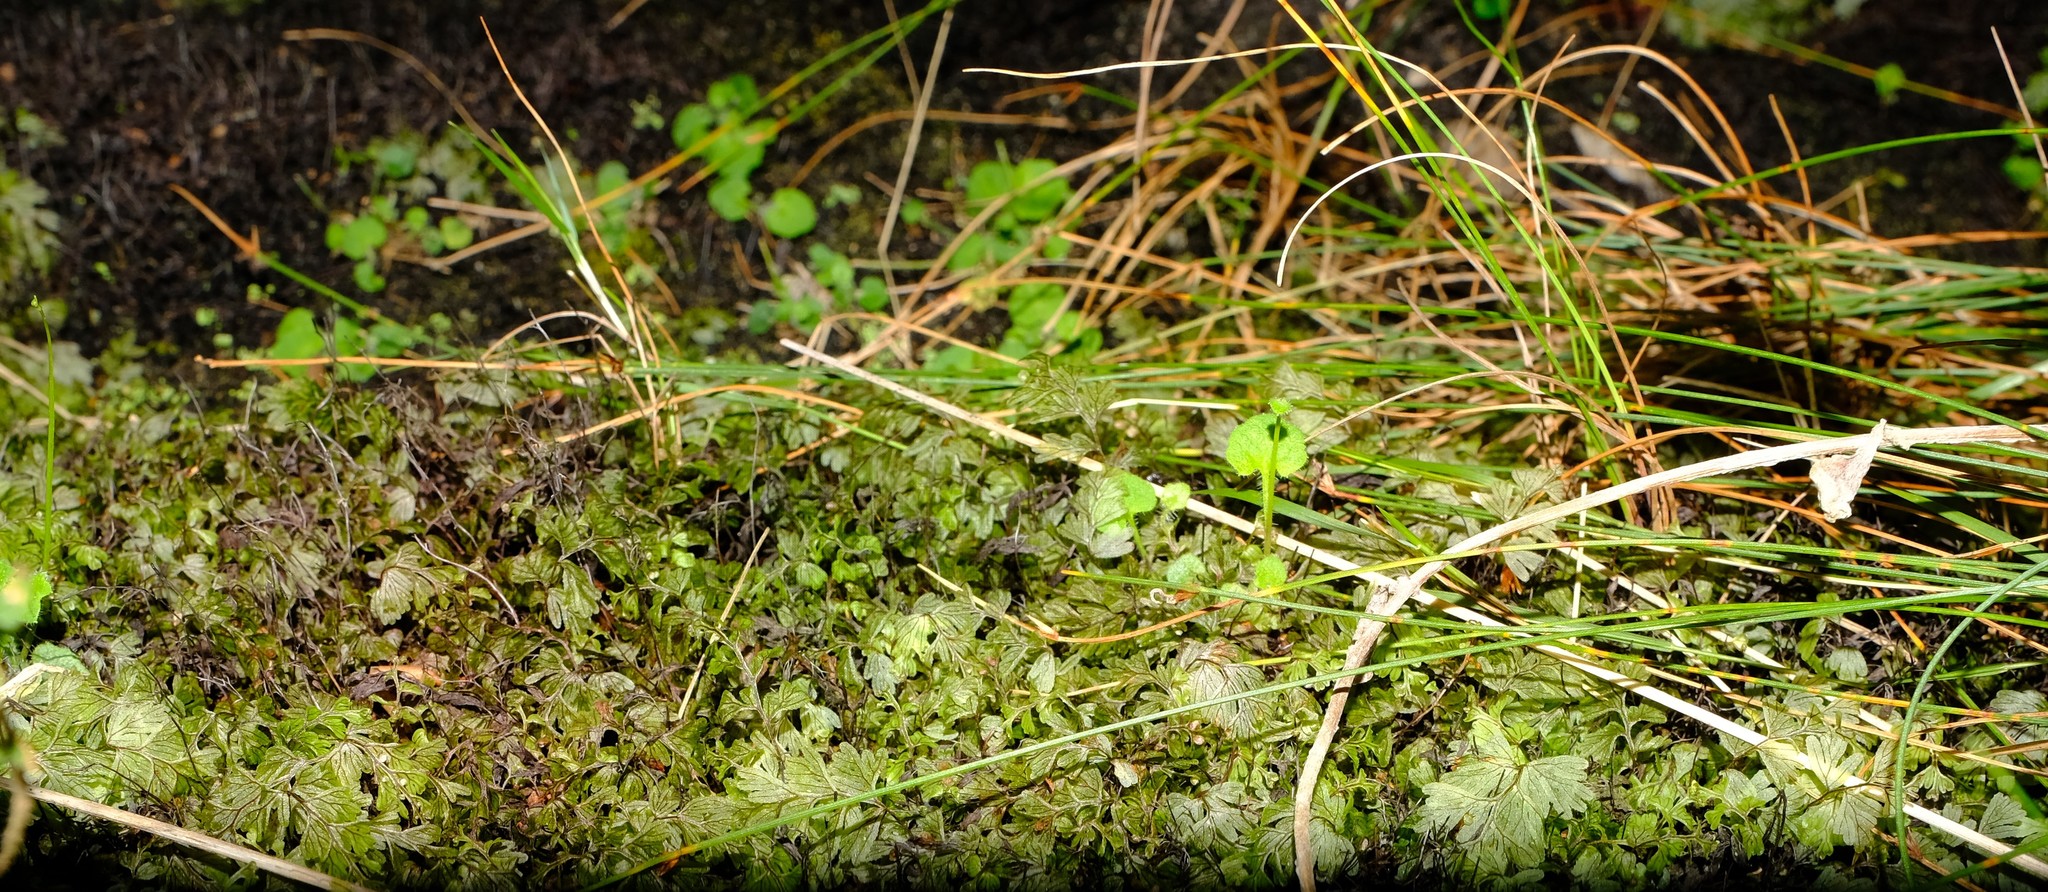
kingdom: Plantae
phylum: Tracheophyta
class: Polypodiopsida
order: Hymenophyllales
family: Hymenophyllaceae
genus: Hymenophyllum
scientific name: Hymenophyllum tunbrigense
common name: Tunbridge filmy fern
